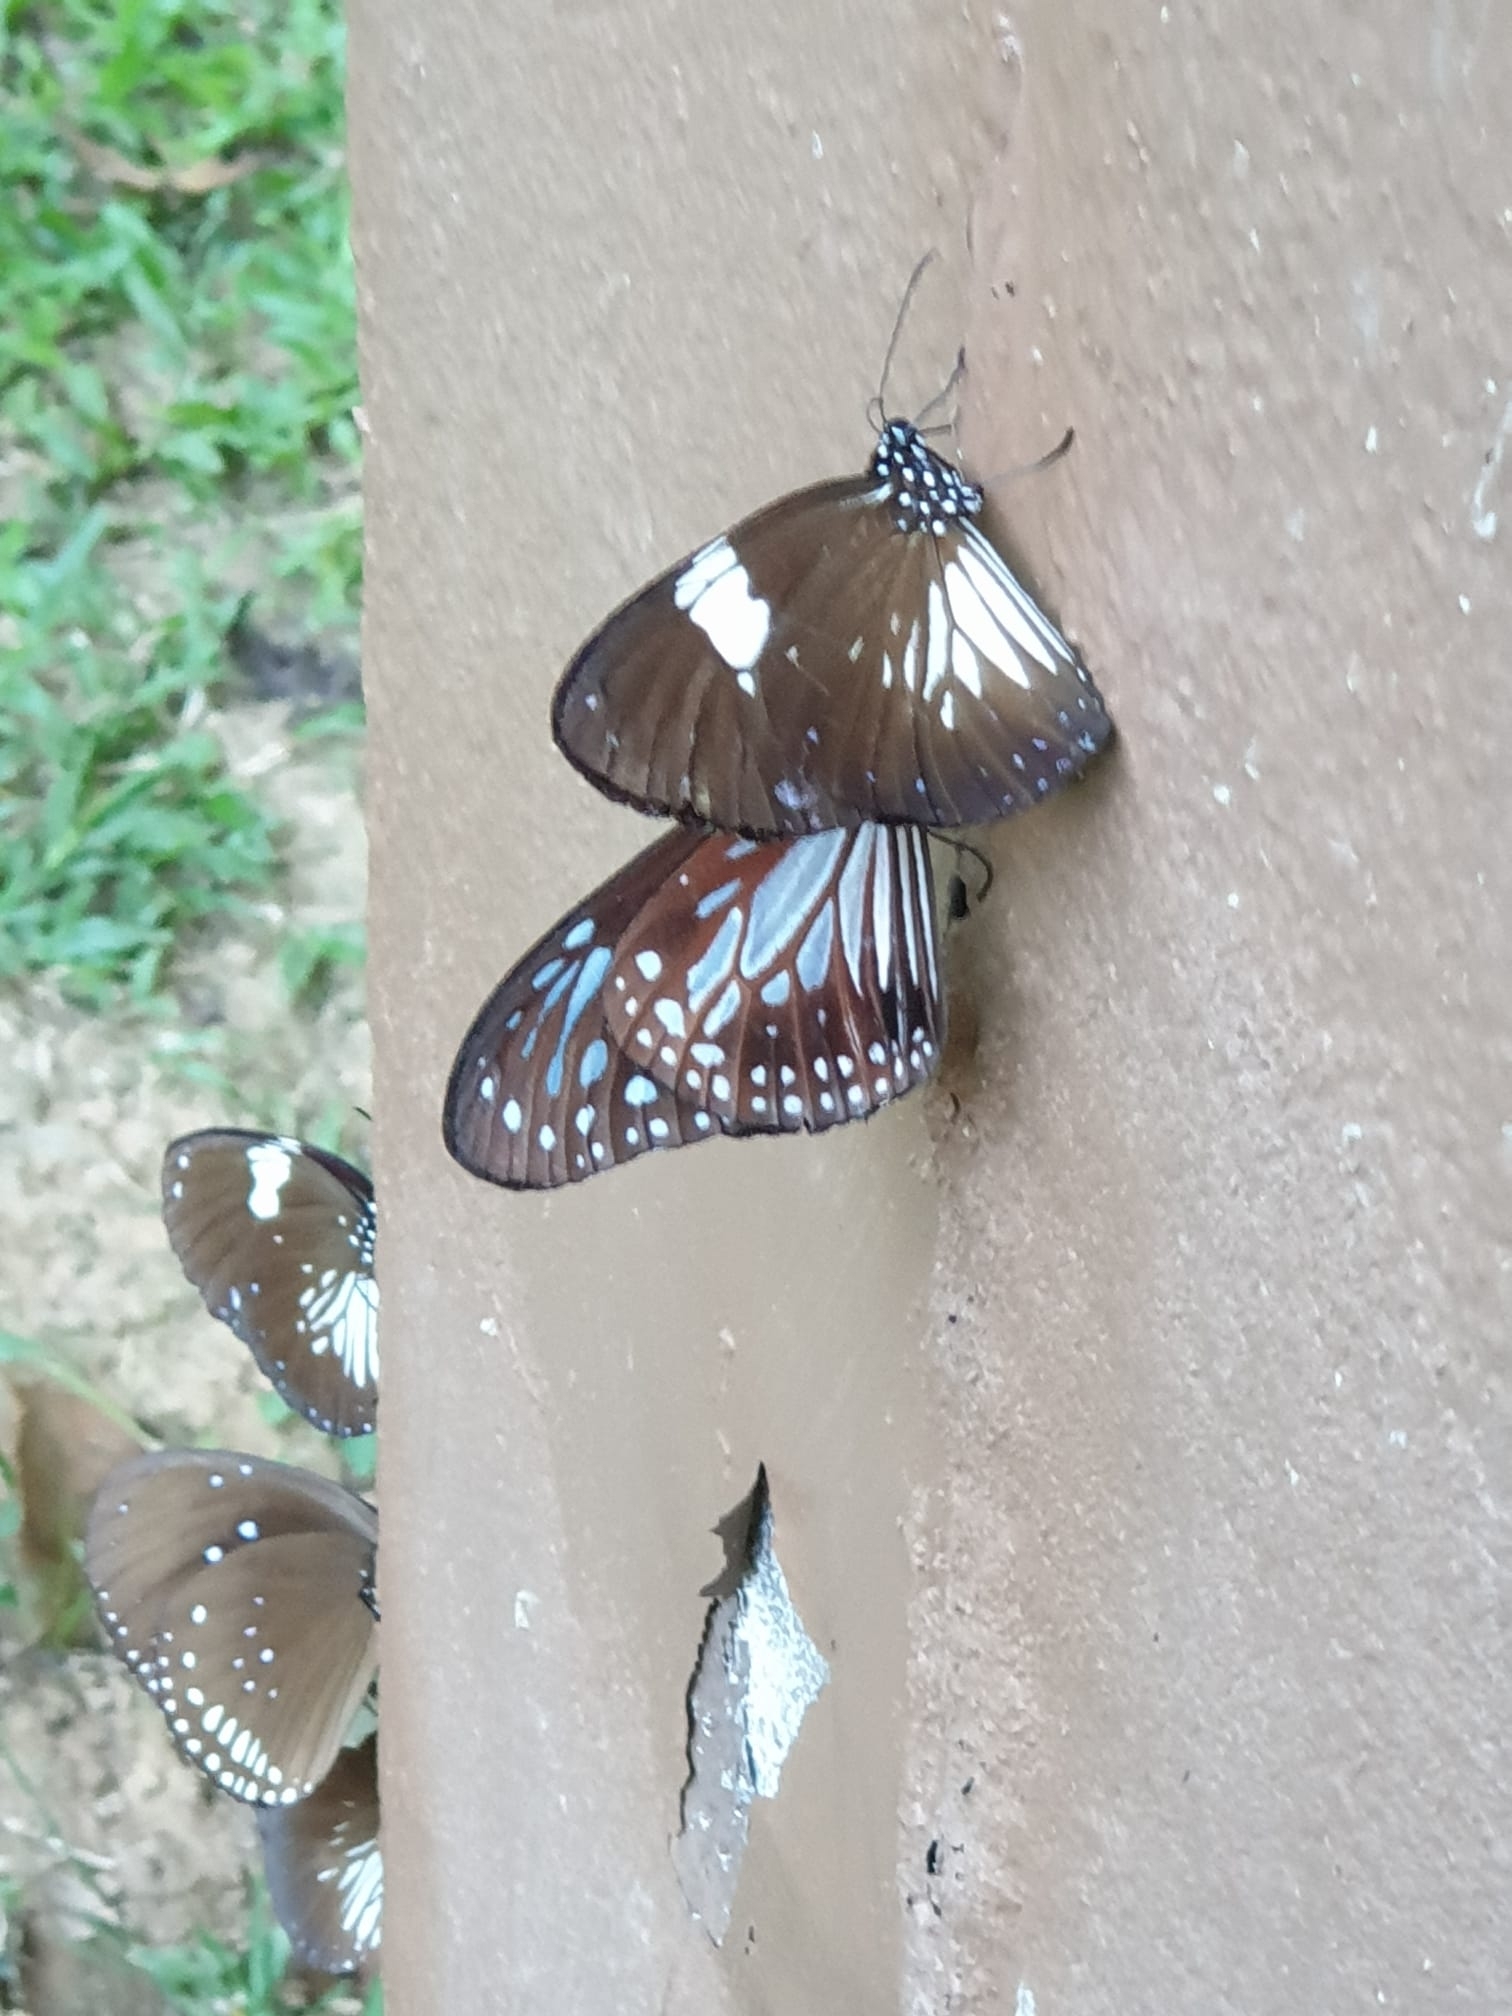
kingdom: Animalia
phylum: Arthropoda
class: Insecta
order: Lepidoptera
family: Nymphalidae
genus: Euploea
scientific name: Euploea radamanthus
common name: Magpie crow butterfly
